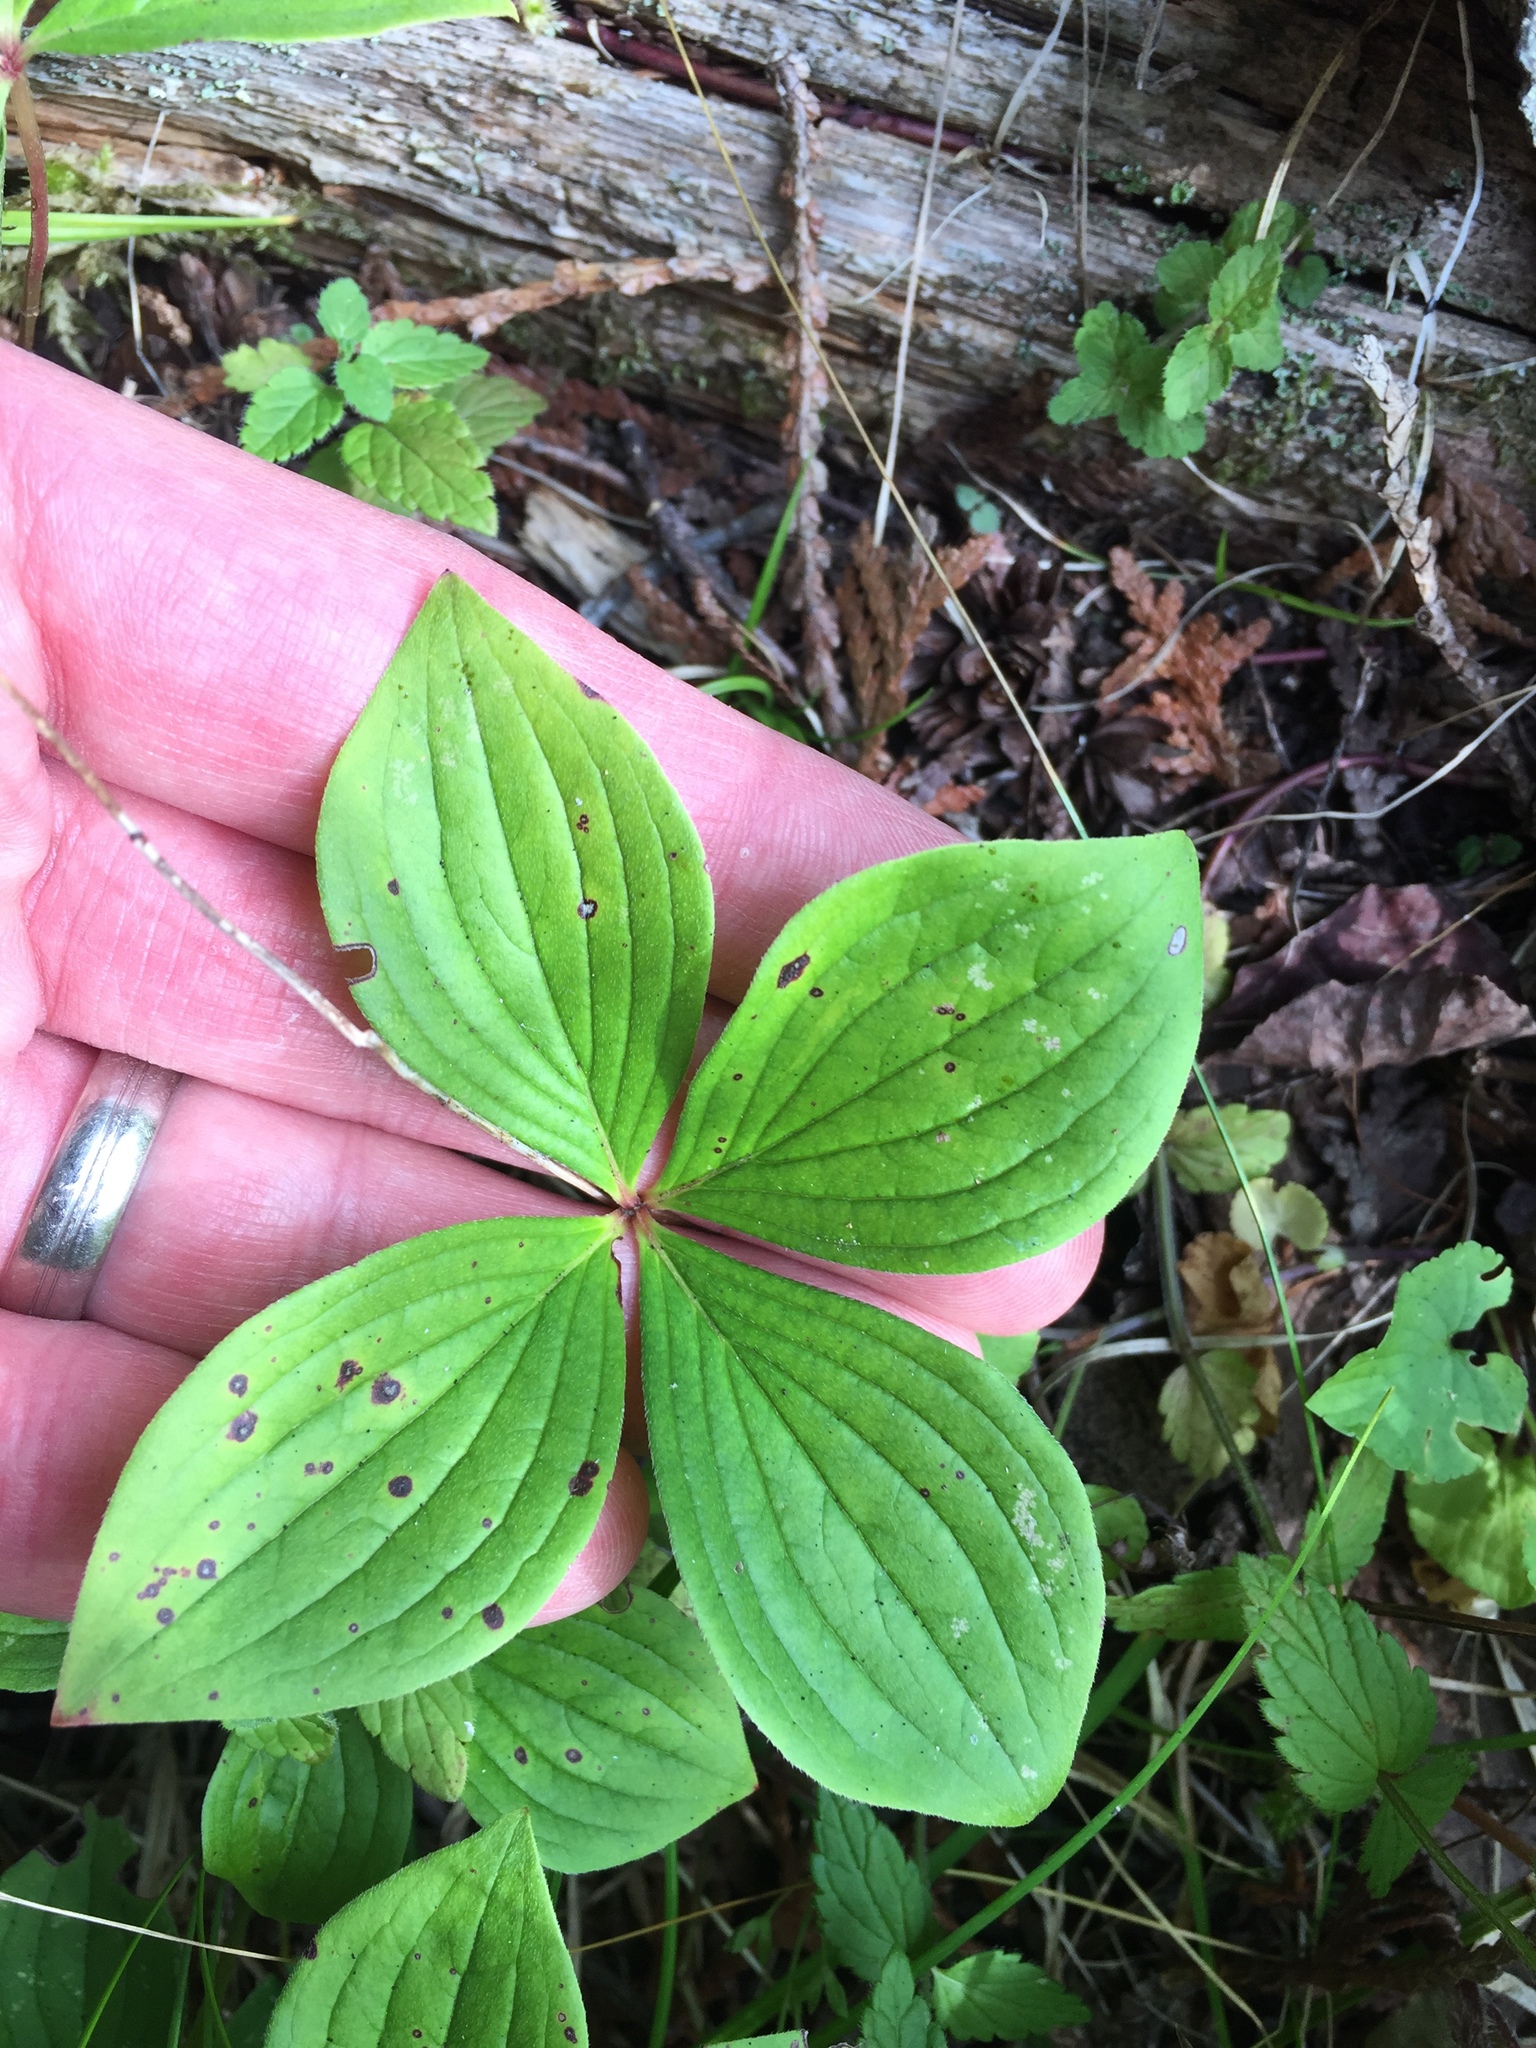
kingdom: Plantae
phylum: Tracheophyta
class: Magnoliopsida
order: Cornales
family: Cornaceae
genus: Cornus
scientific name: Cornus canadensis
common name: Creeping dogwood
